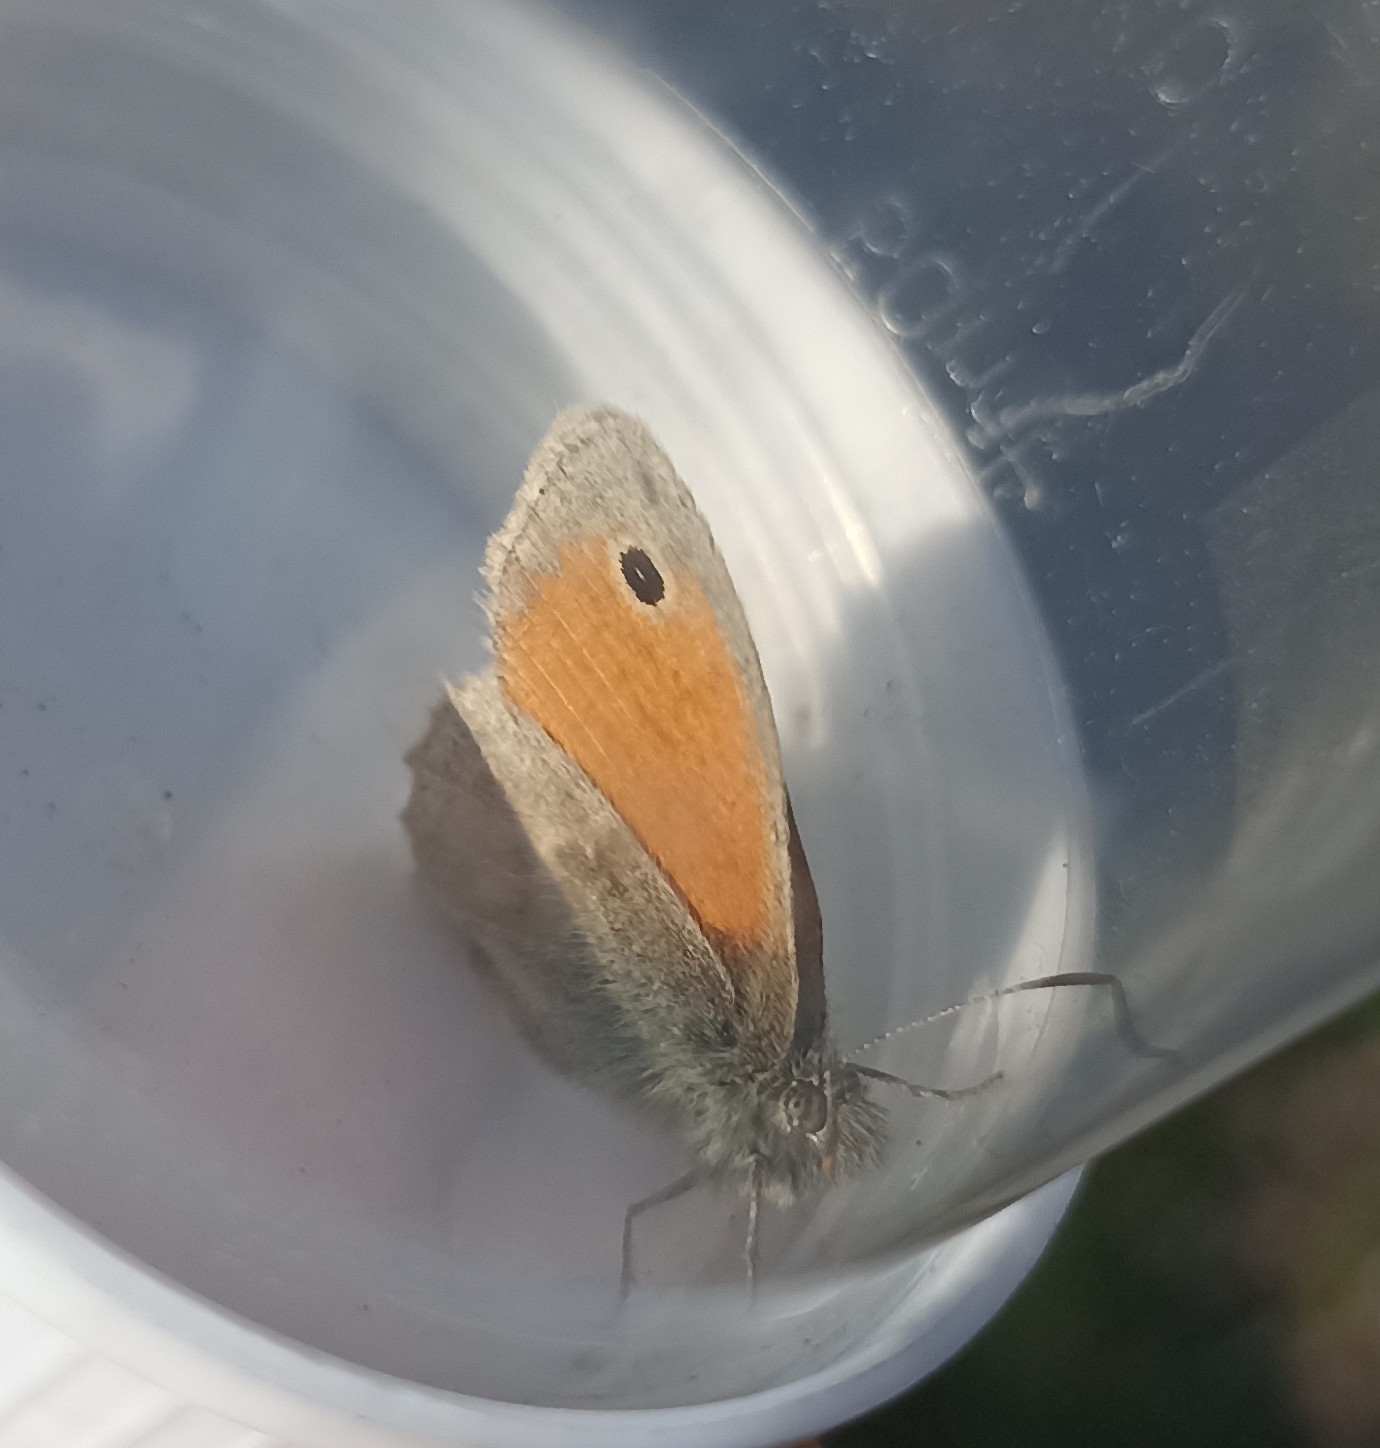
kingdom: Animalia
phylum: Arthropoda
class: Insecta
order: Lepidoptera
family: Nymphalidae
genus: Coenonympha
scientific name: Coenonympha pamphilus
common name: Small heath
